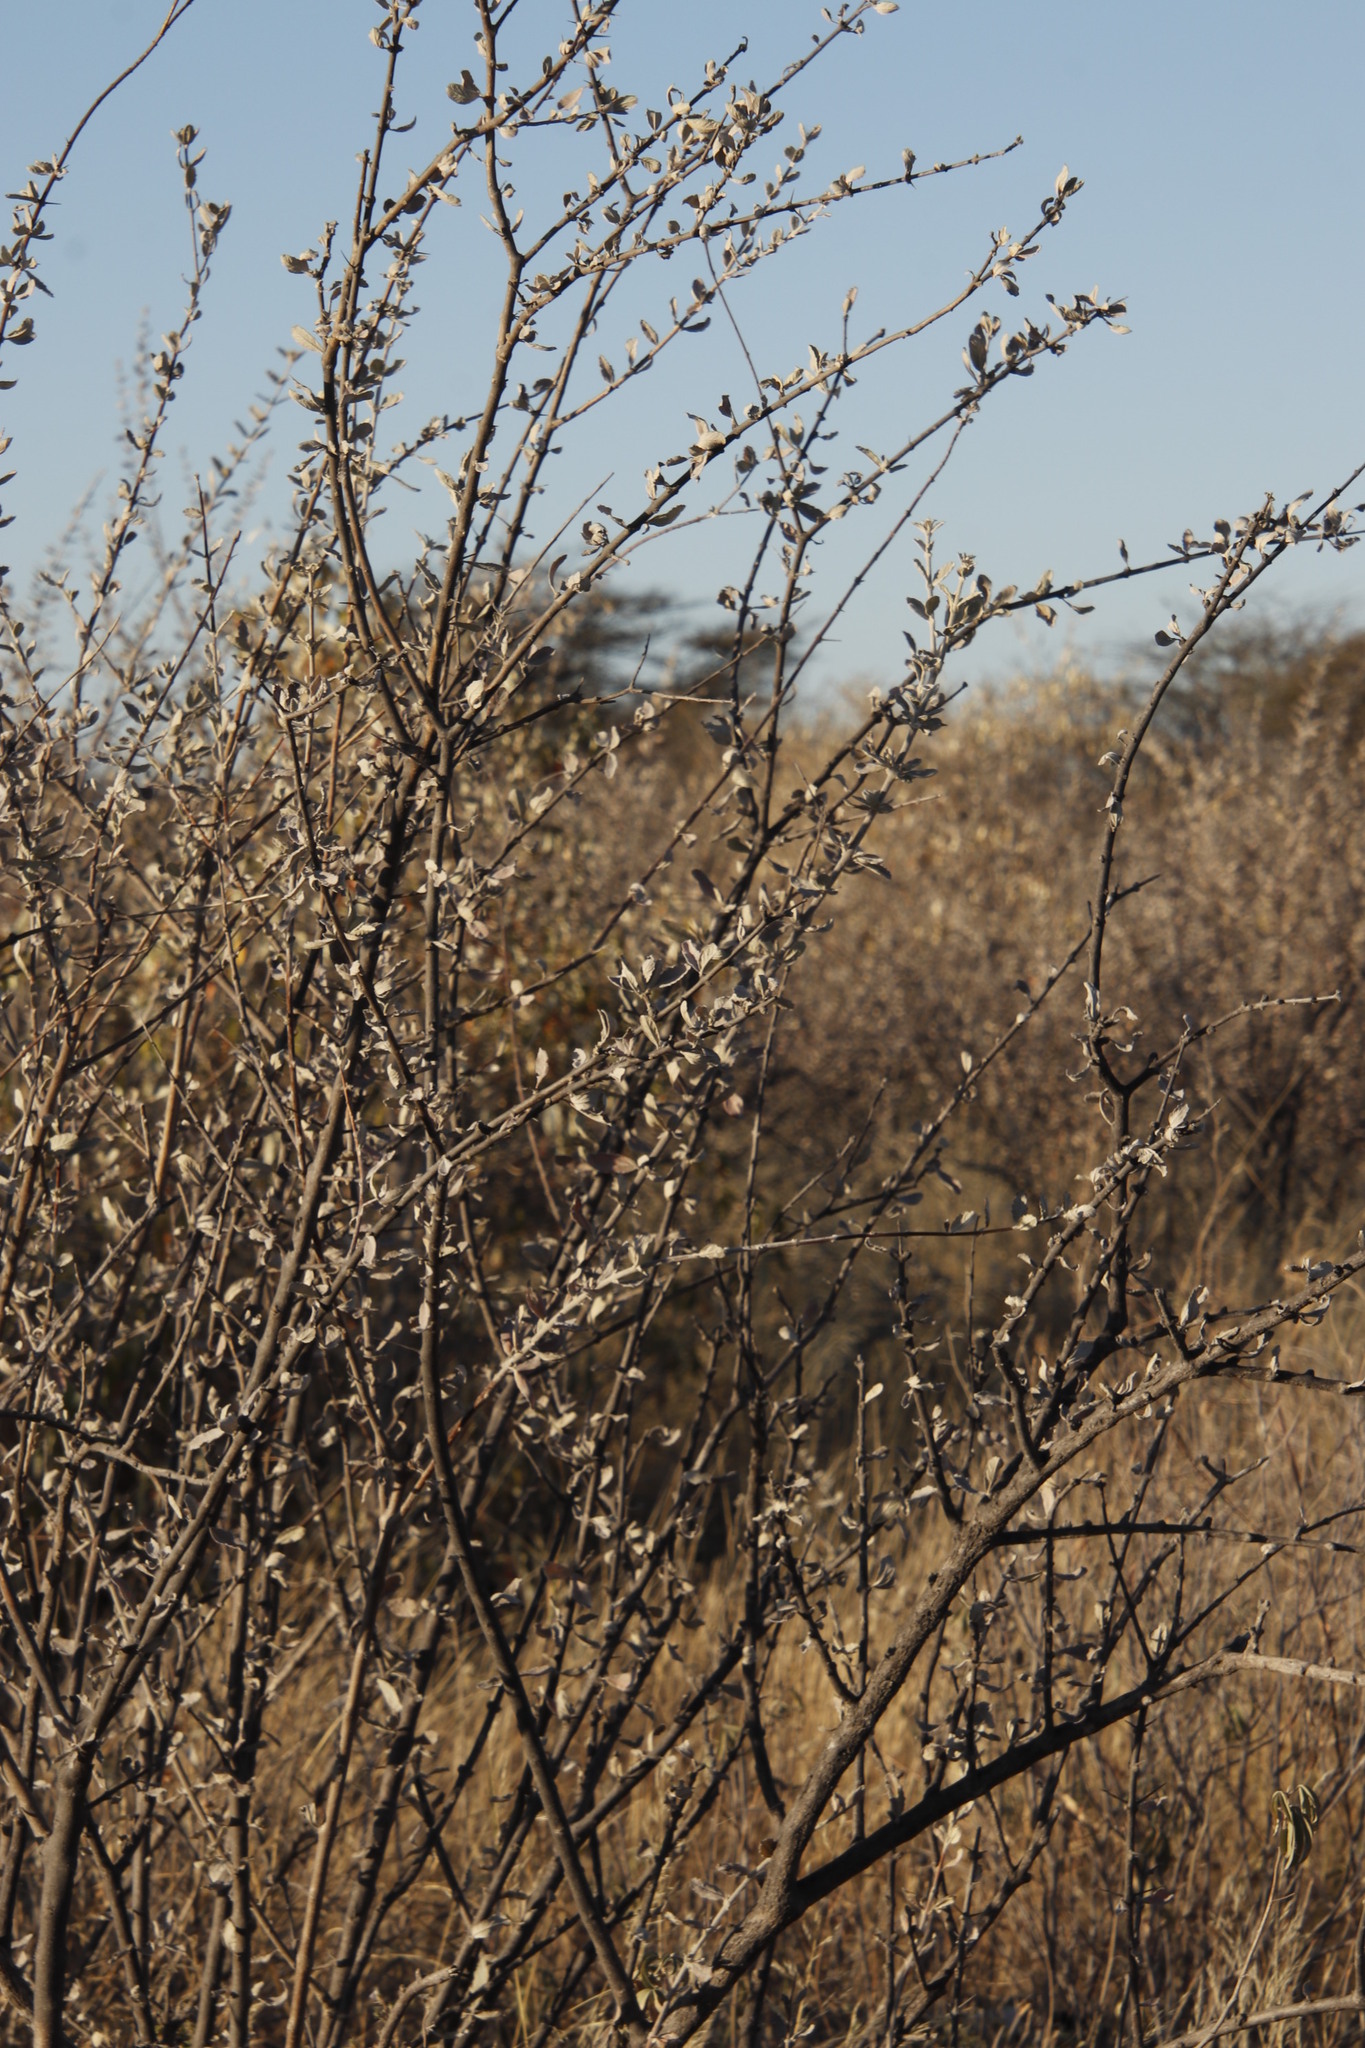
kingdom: Plantae
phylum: Tracheophyta
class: Magnoliopsida
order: Lamiales
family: Bignoniaceae
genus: Catophractes
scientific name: Catophractes alexandri
